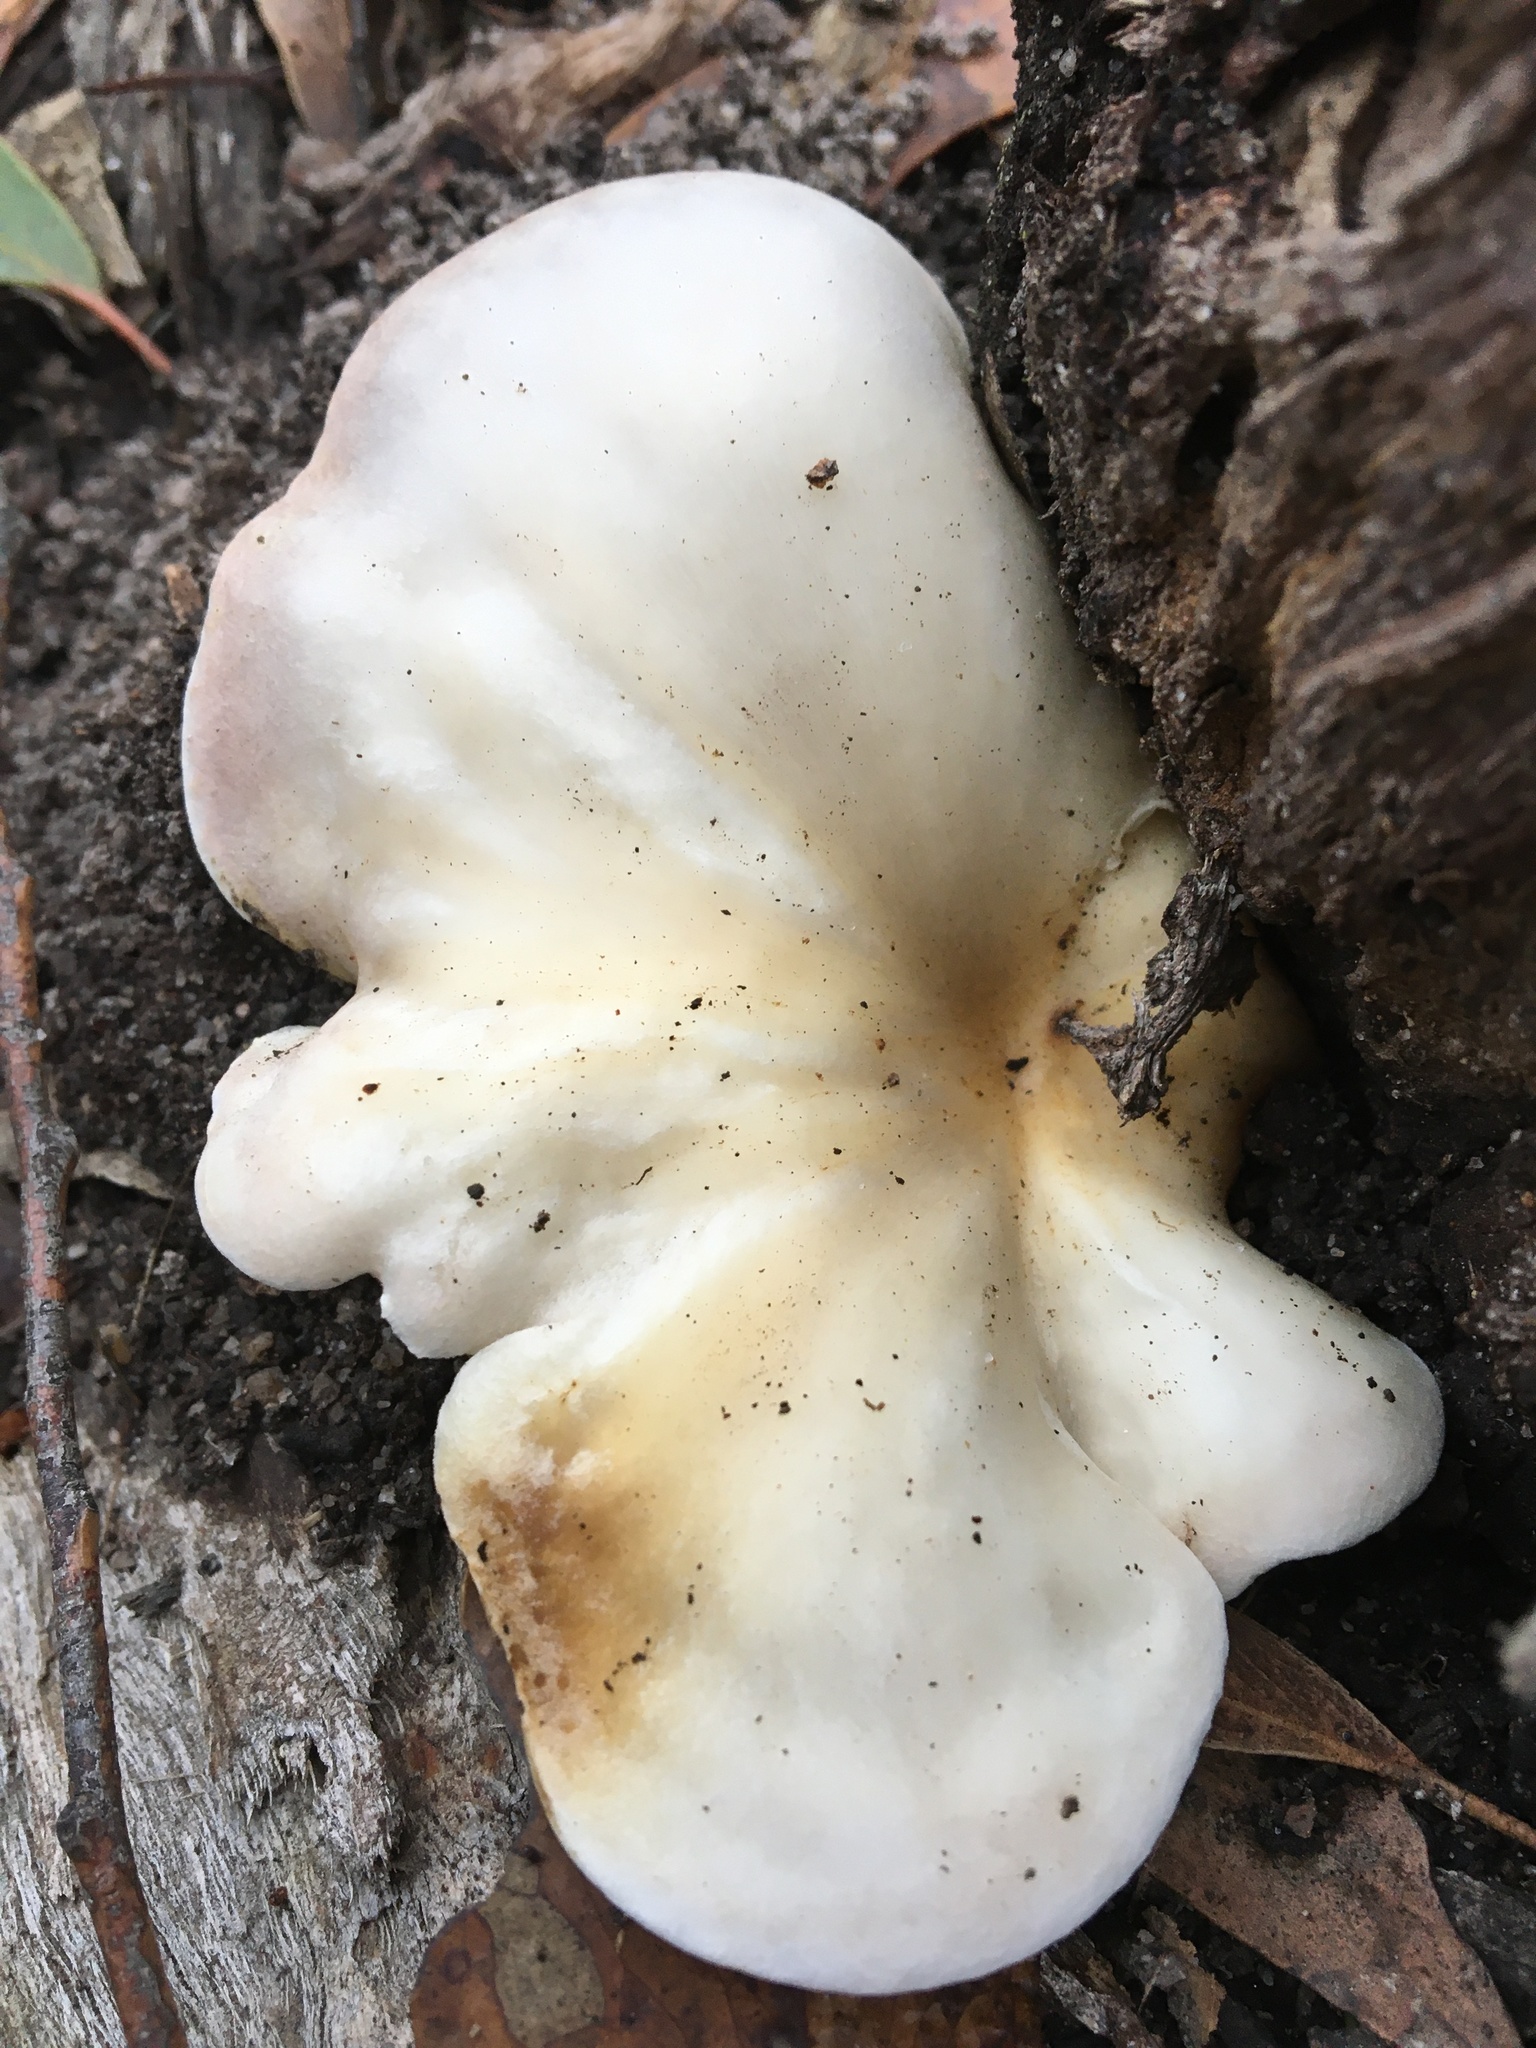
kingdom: Fungi
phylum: Basidiomycota
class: Agaricomycetes
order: Agaricales
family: Omphalotaceae
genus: Omphalotus
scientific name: Omphalotus nidiformis
